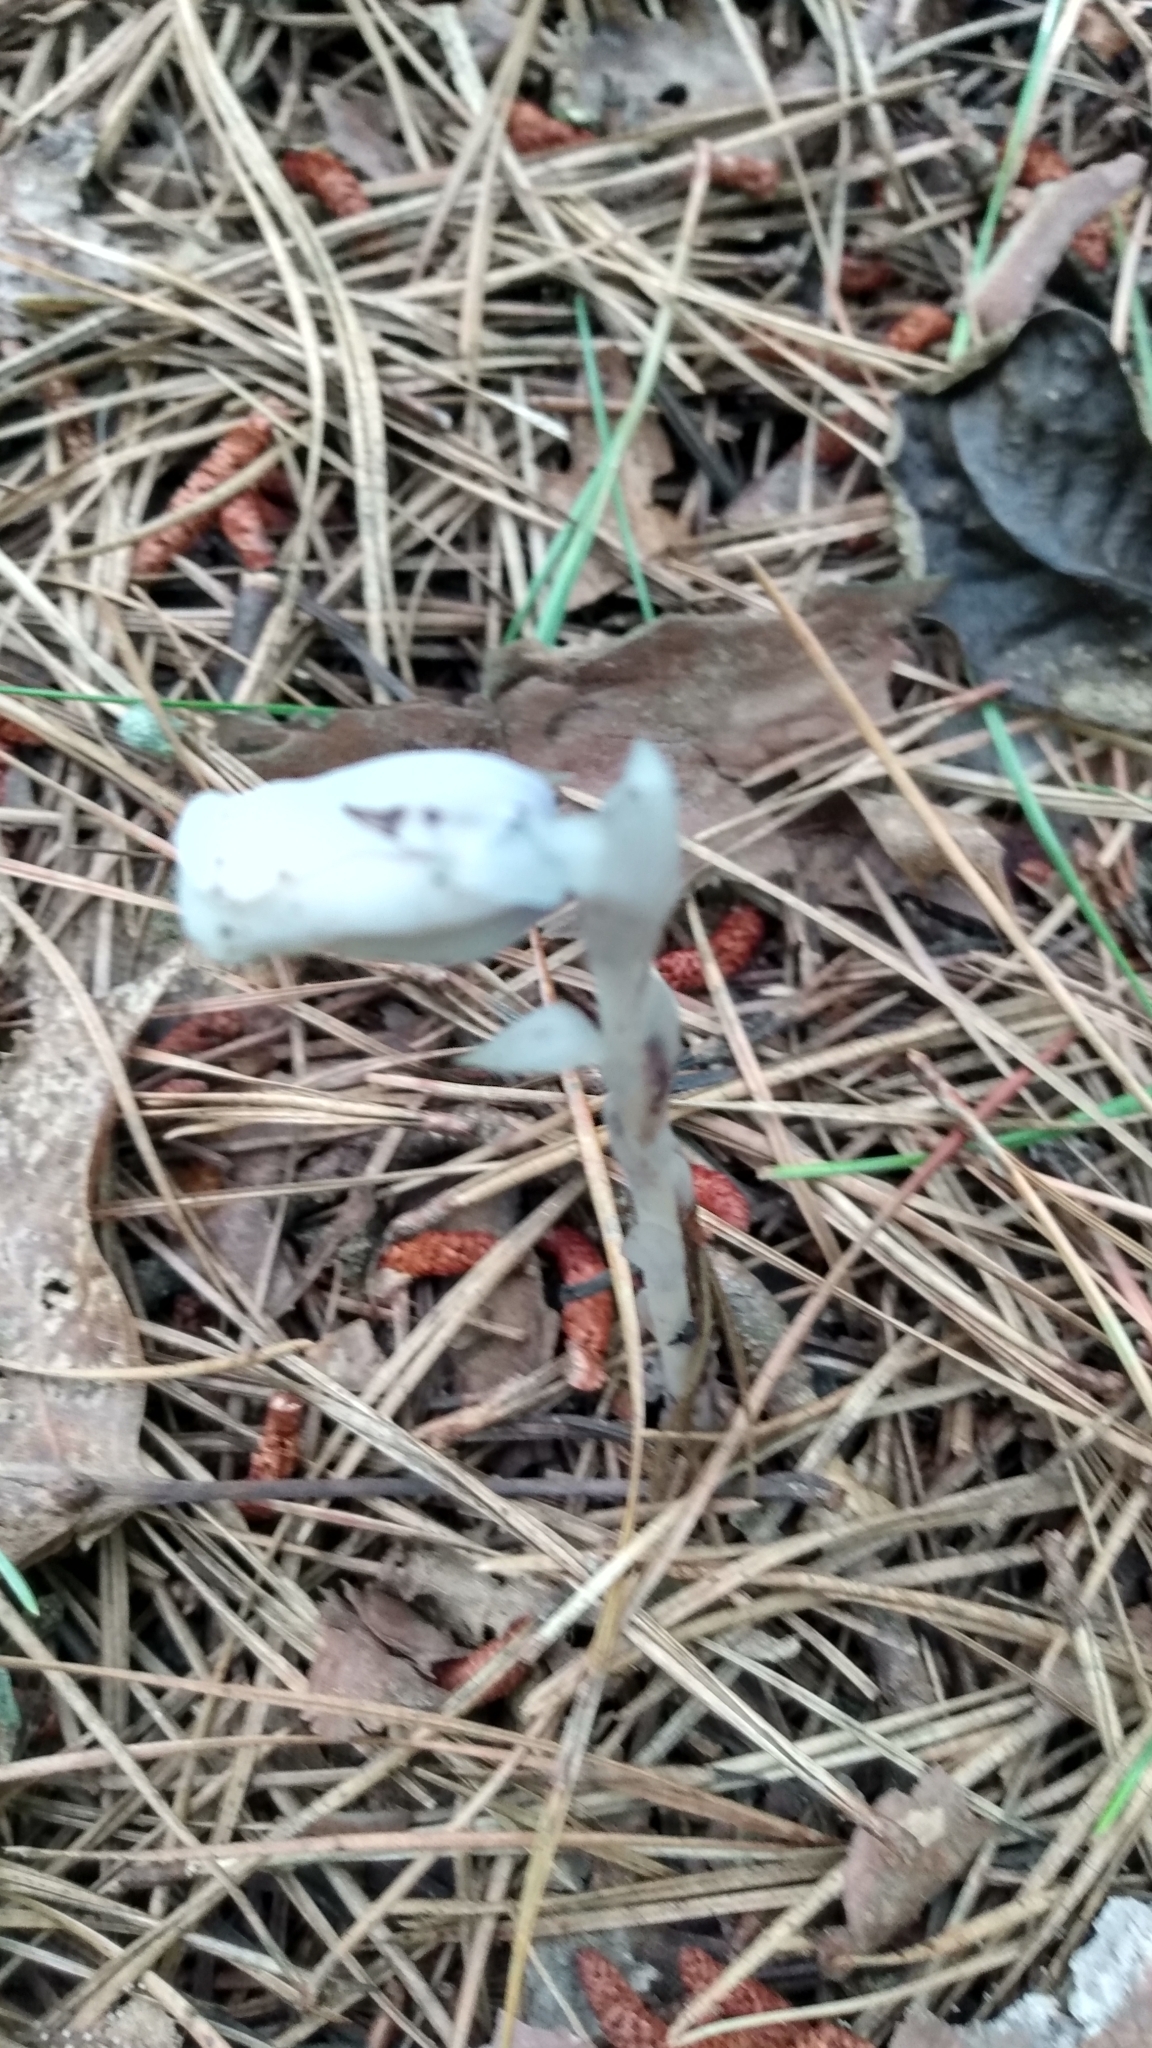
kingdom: Plantae
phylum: Tracheophyta
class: Magnoliopsida
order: Ericales
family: Ericaceae
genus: Monotropa
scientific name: Monotropa uniflora
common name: Convulsion root
